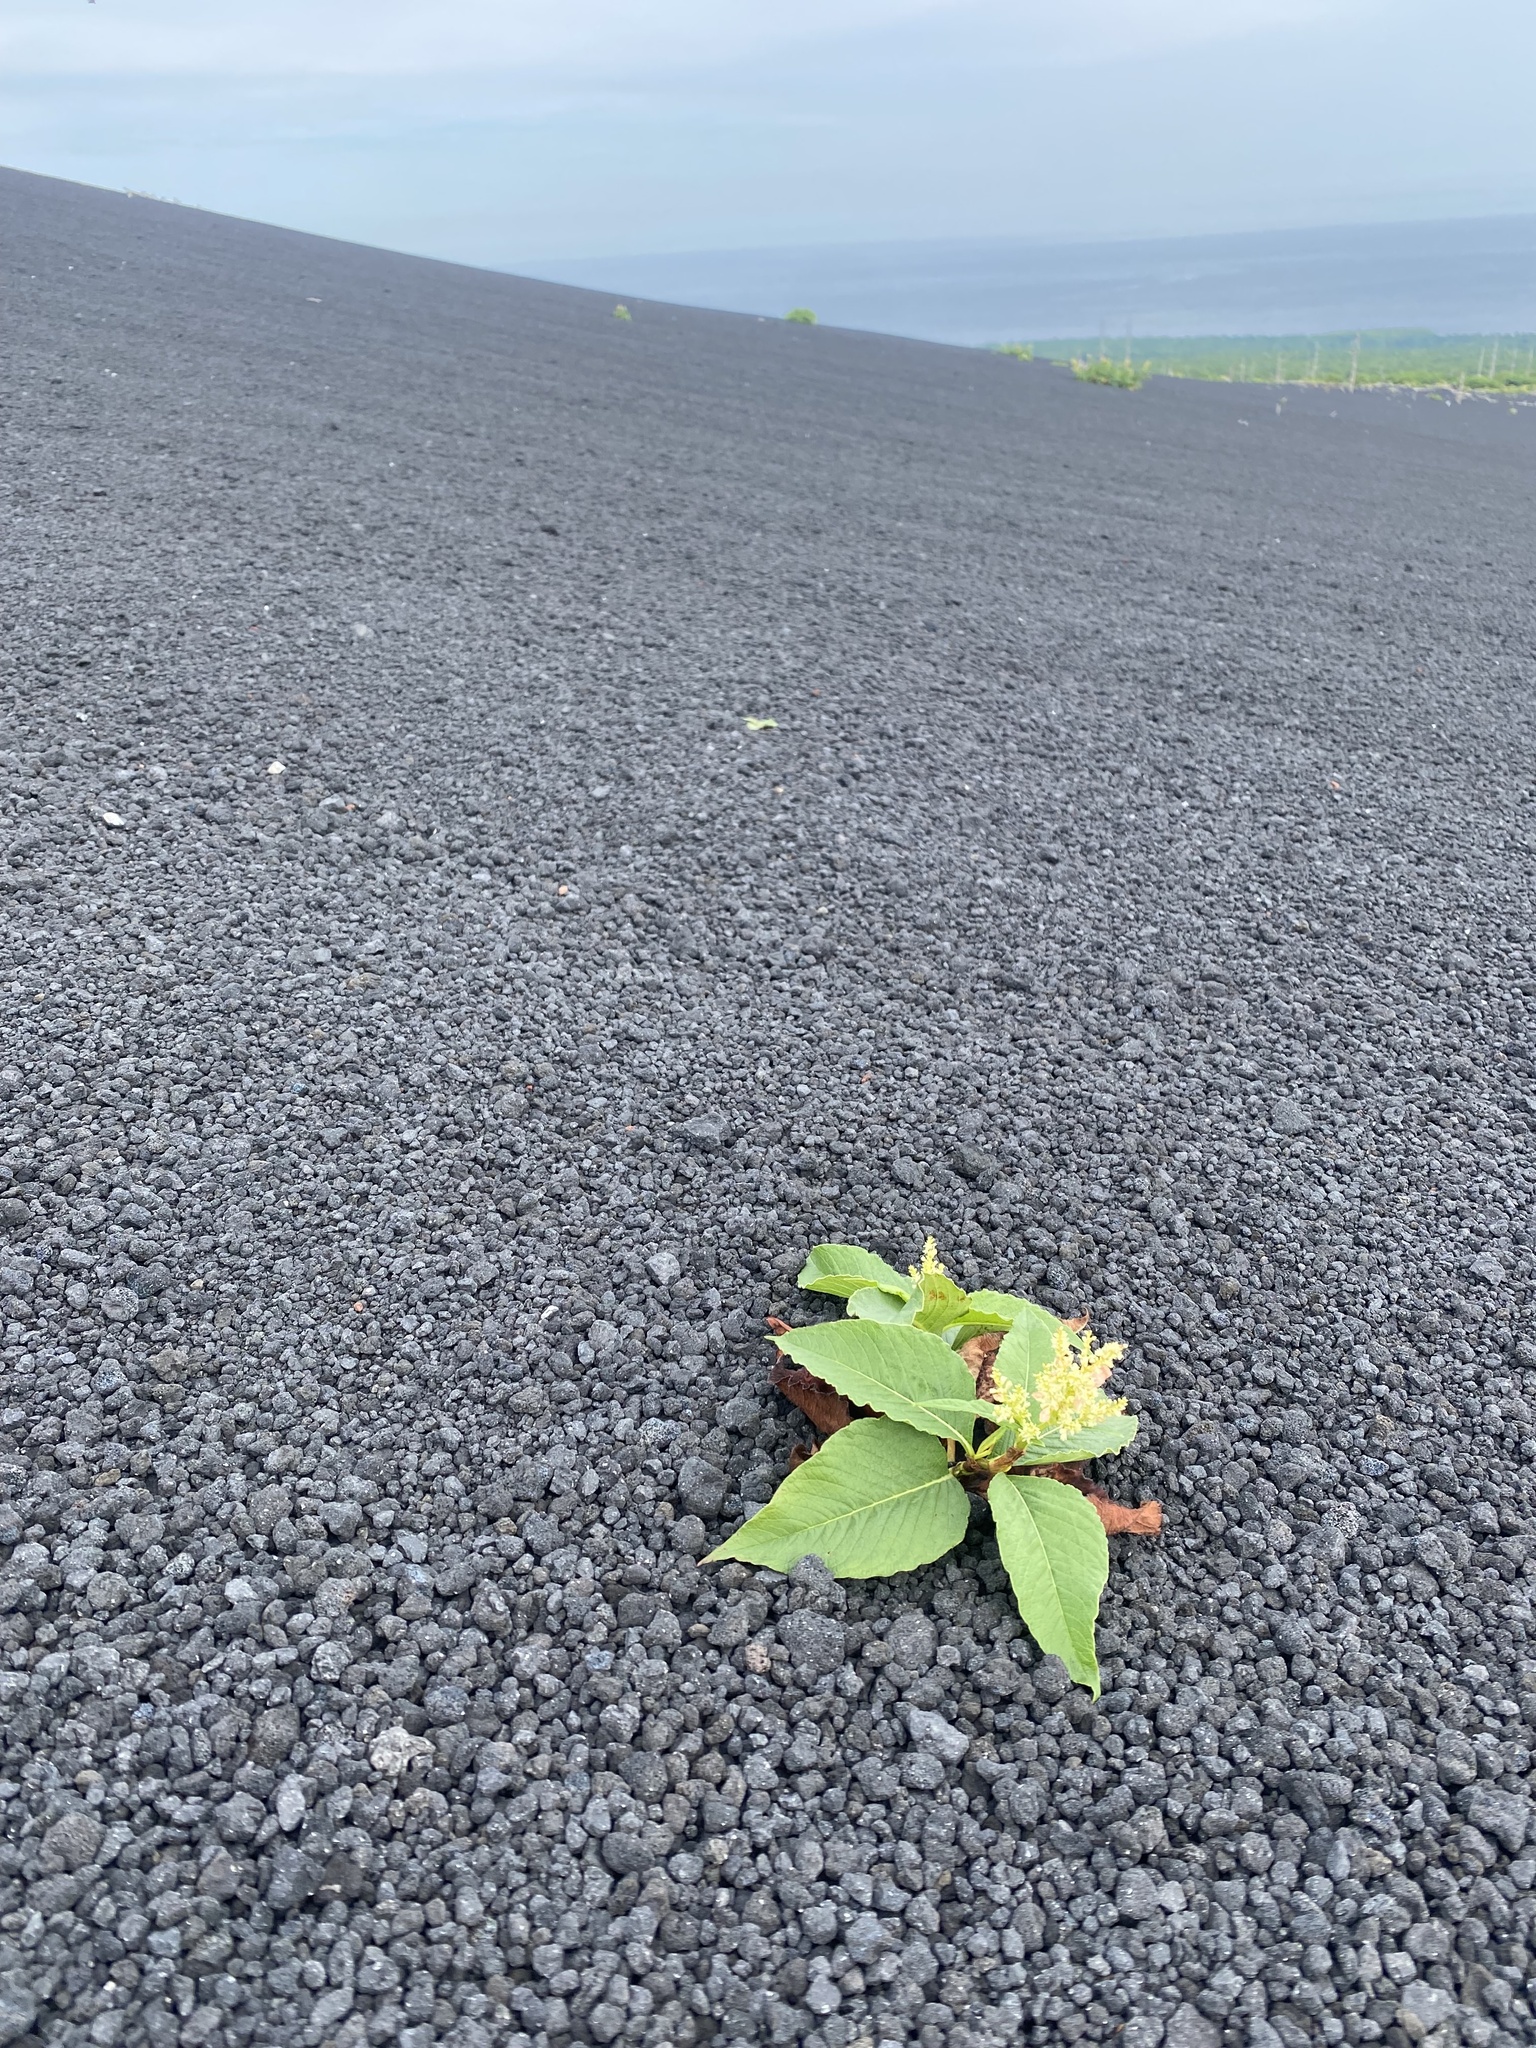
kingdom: Plantae
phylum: Tracheophyta
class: Magnoliopsida
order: Caryophyllales
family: Polygonaceae
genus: Koenigia
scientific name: Koenigia weyrichii
